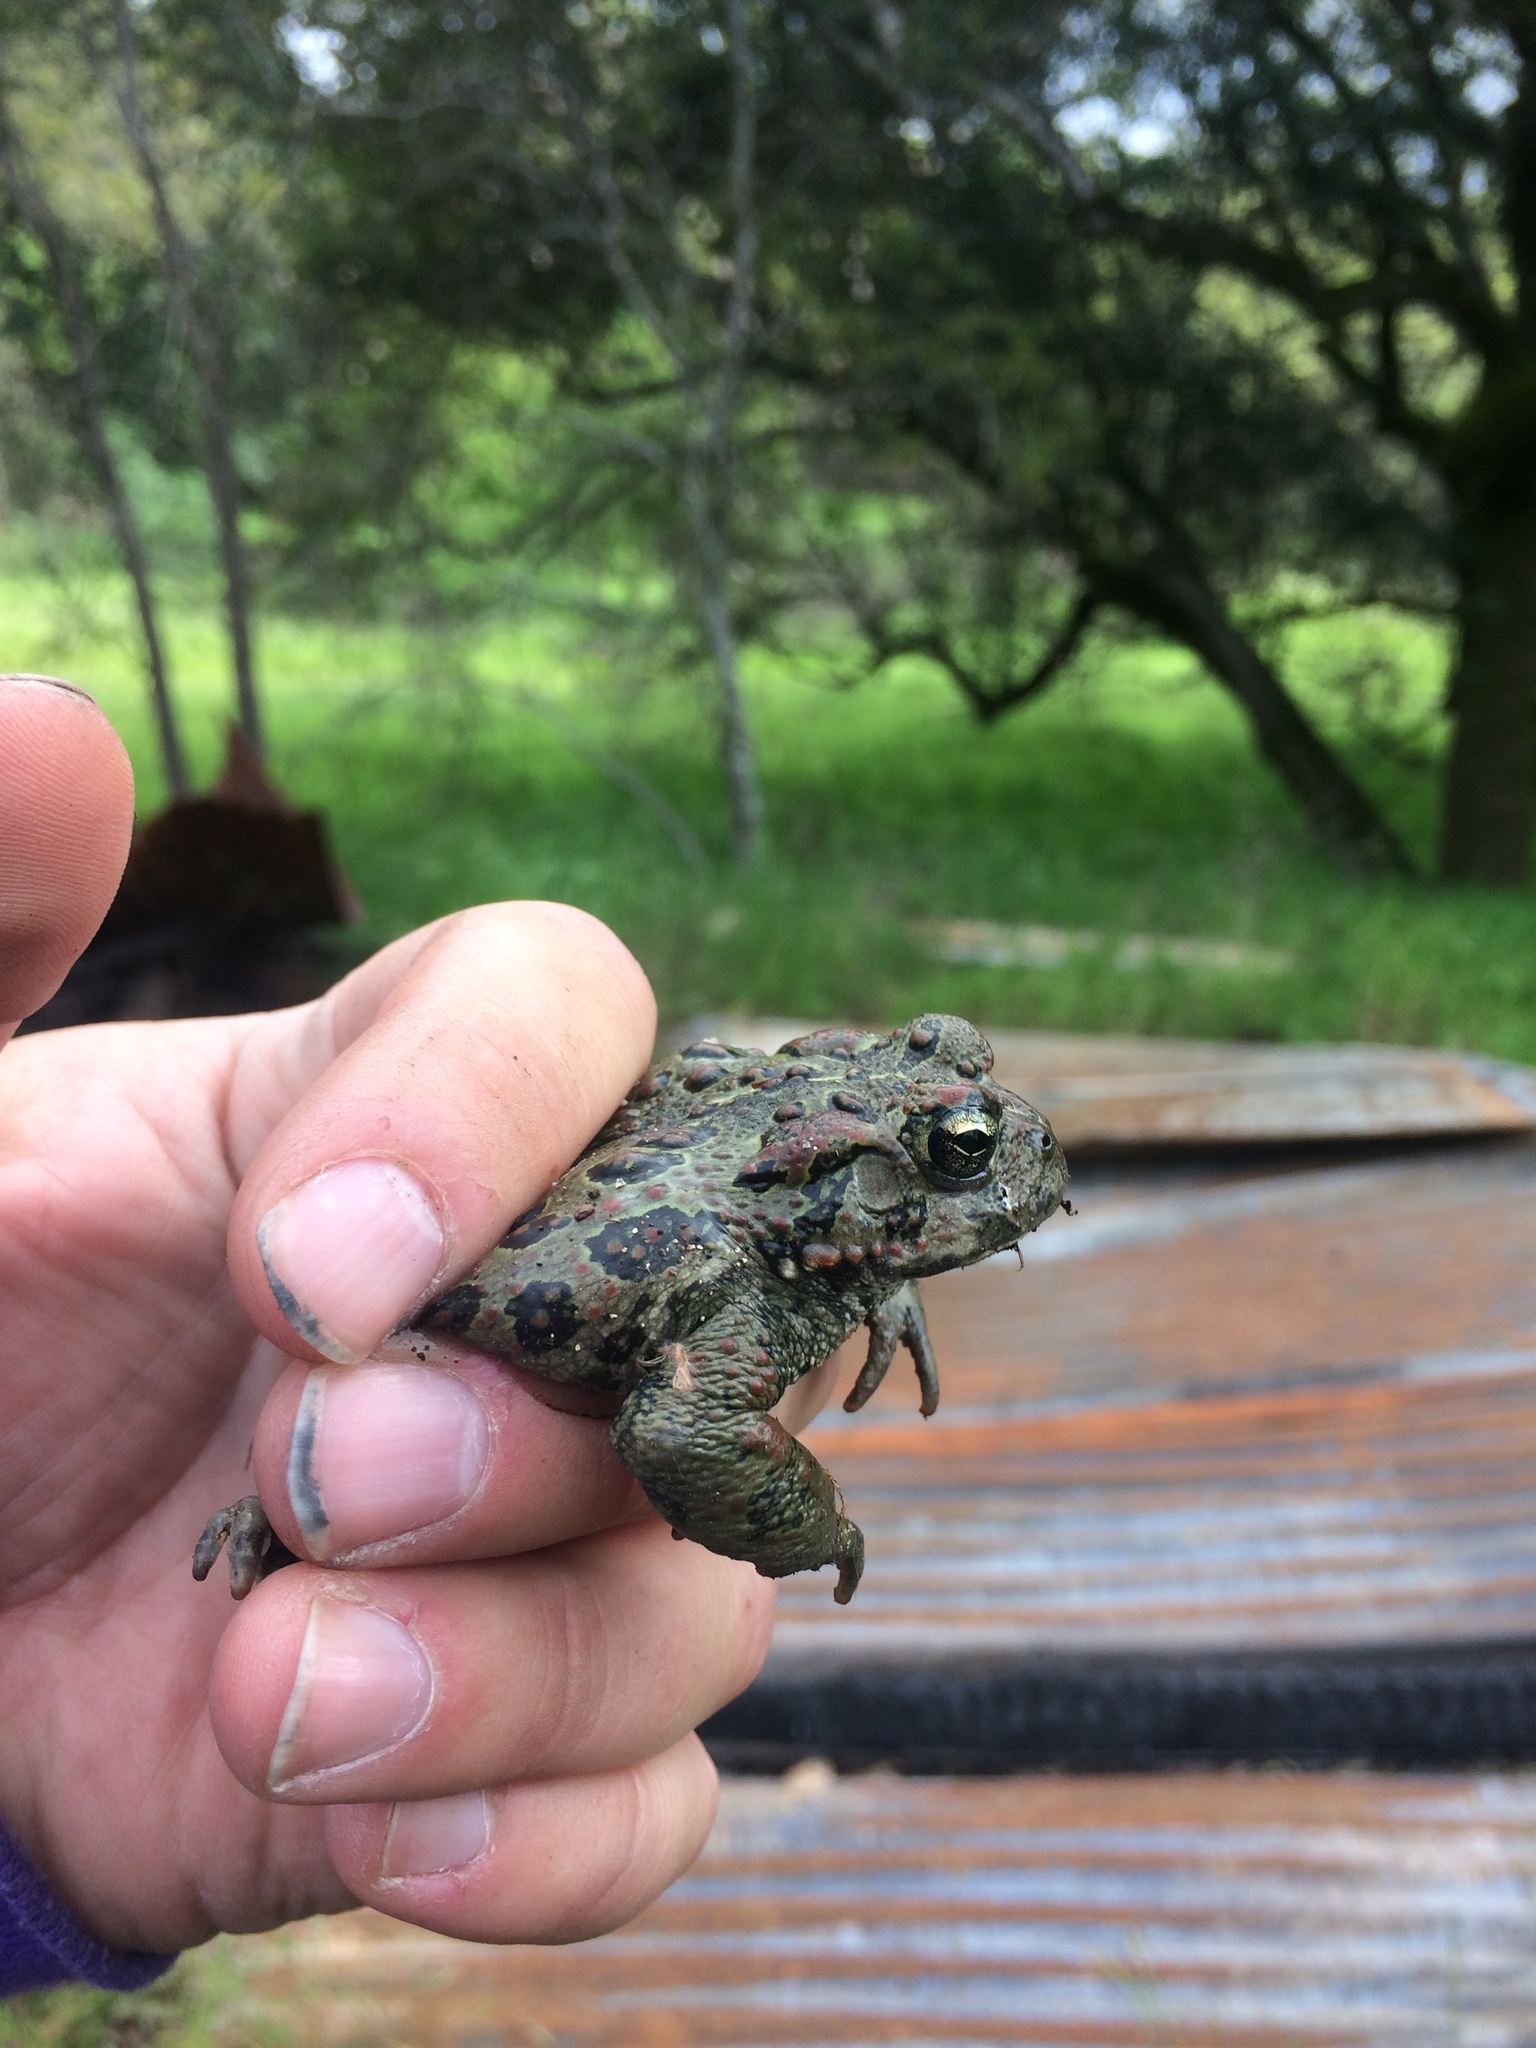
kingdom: Animalia
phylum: Chordata
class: Amphibia
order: Anura
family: Bufonidae
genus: Anaxyrus
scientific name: Anaxyrus boreas
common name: Western toad
